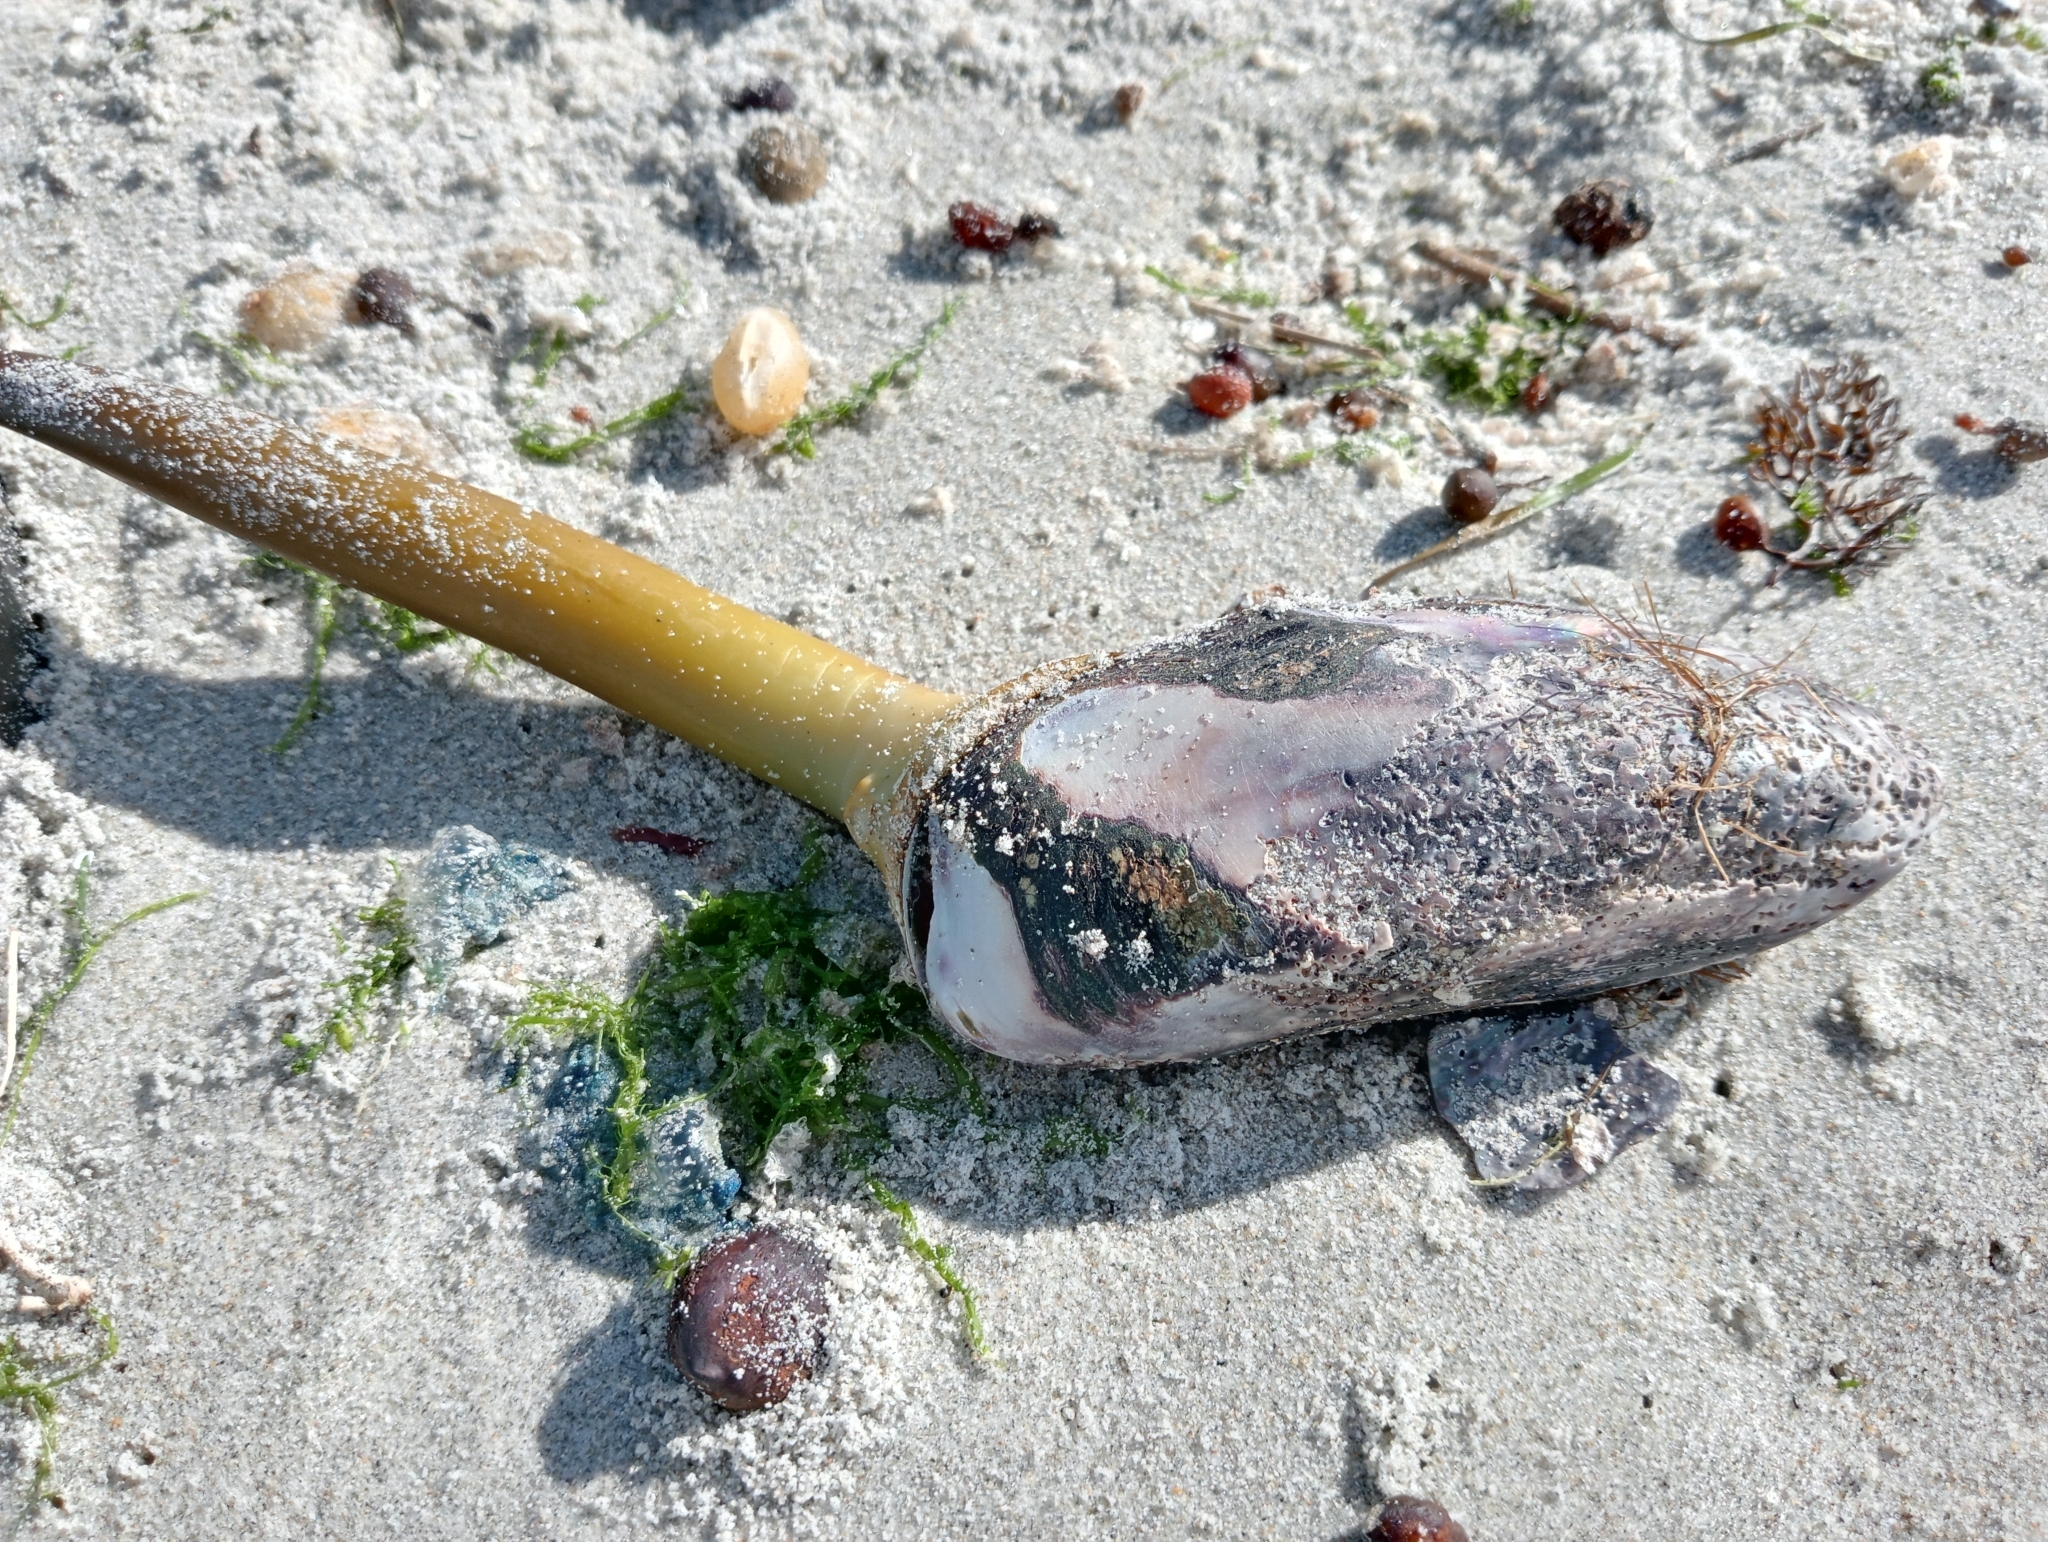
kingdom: Animalia
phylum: Mollusca
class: Bivalvia
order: Mytilida
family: Mytilidae
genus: Perna
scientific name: Perna canaliculus
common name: New zealand greenshelltm
